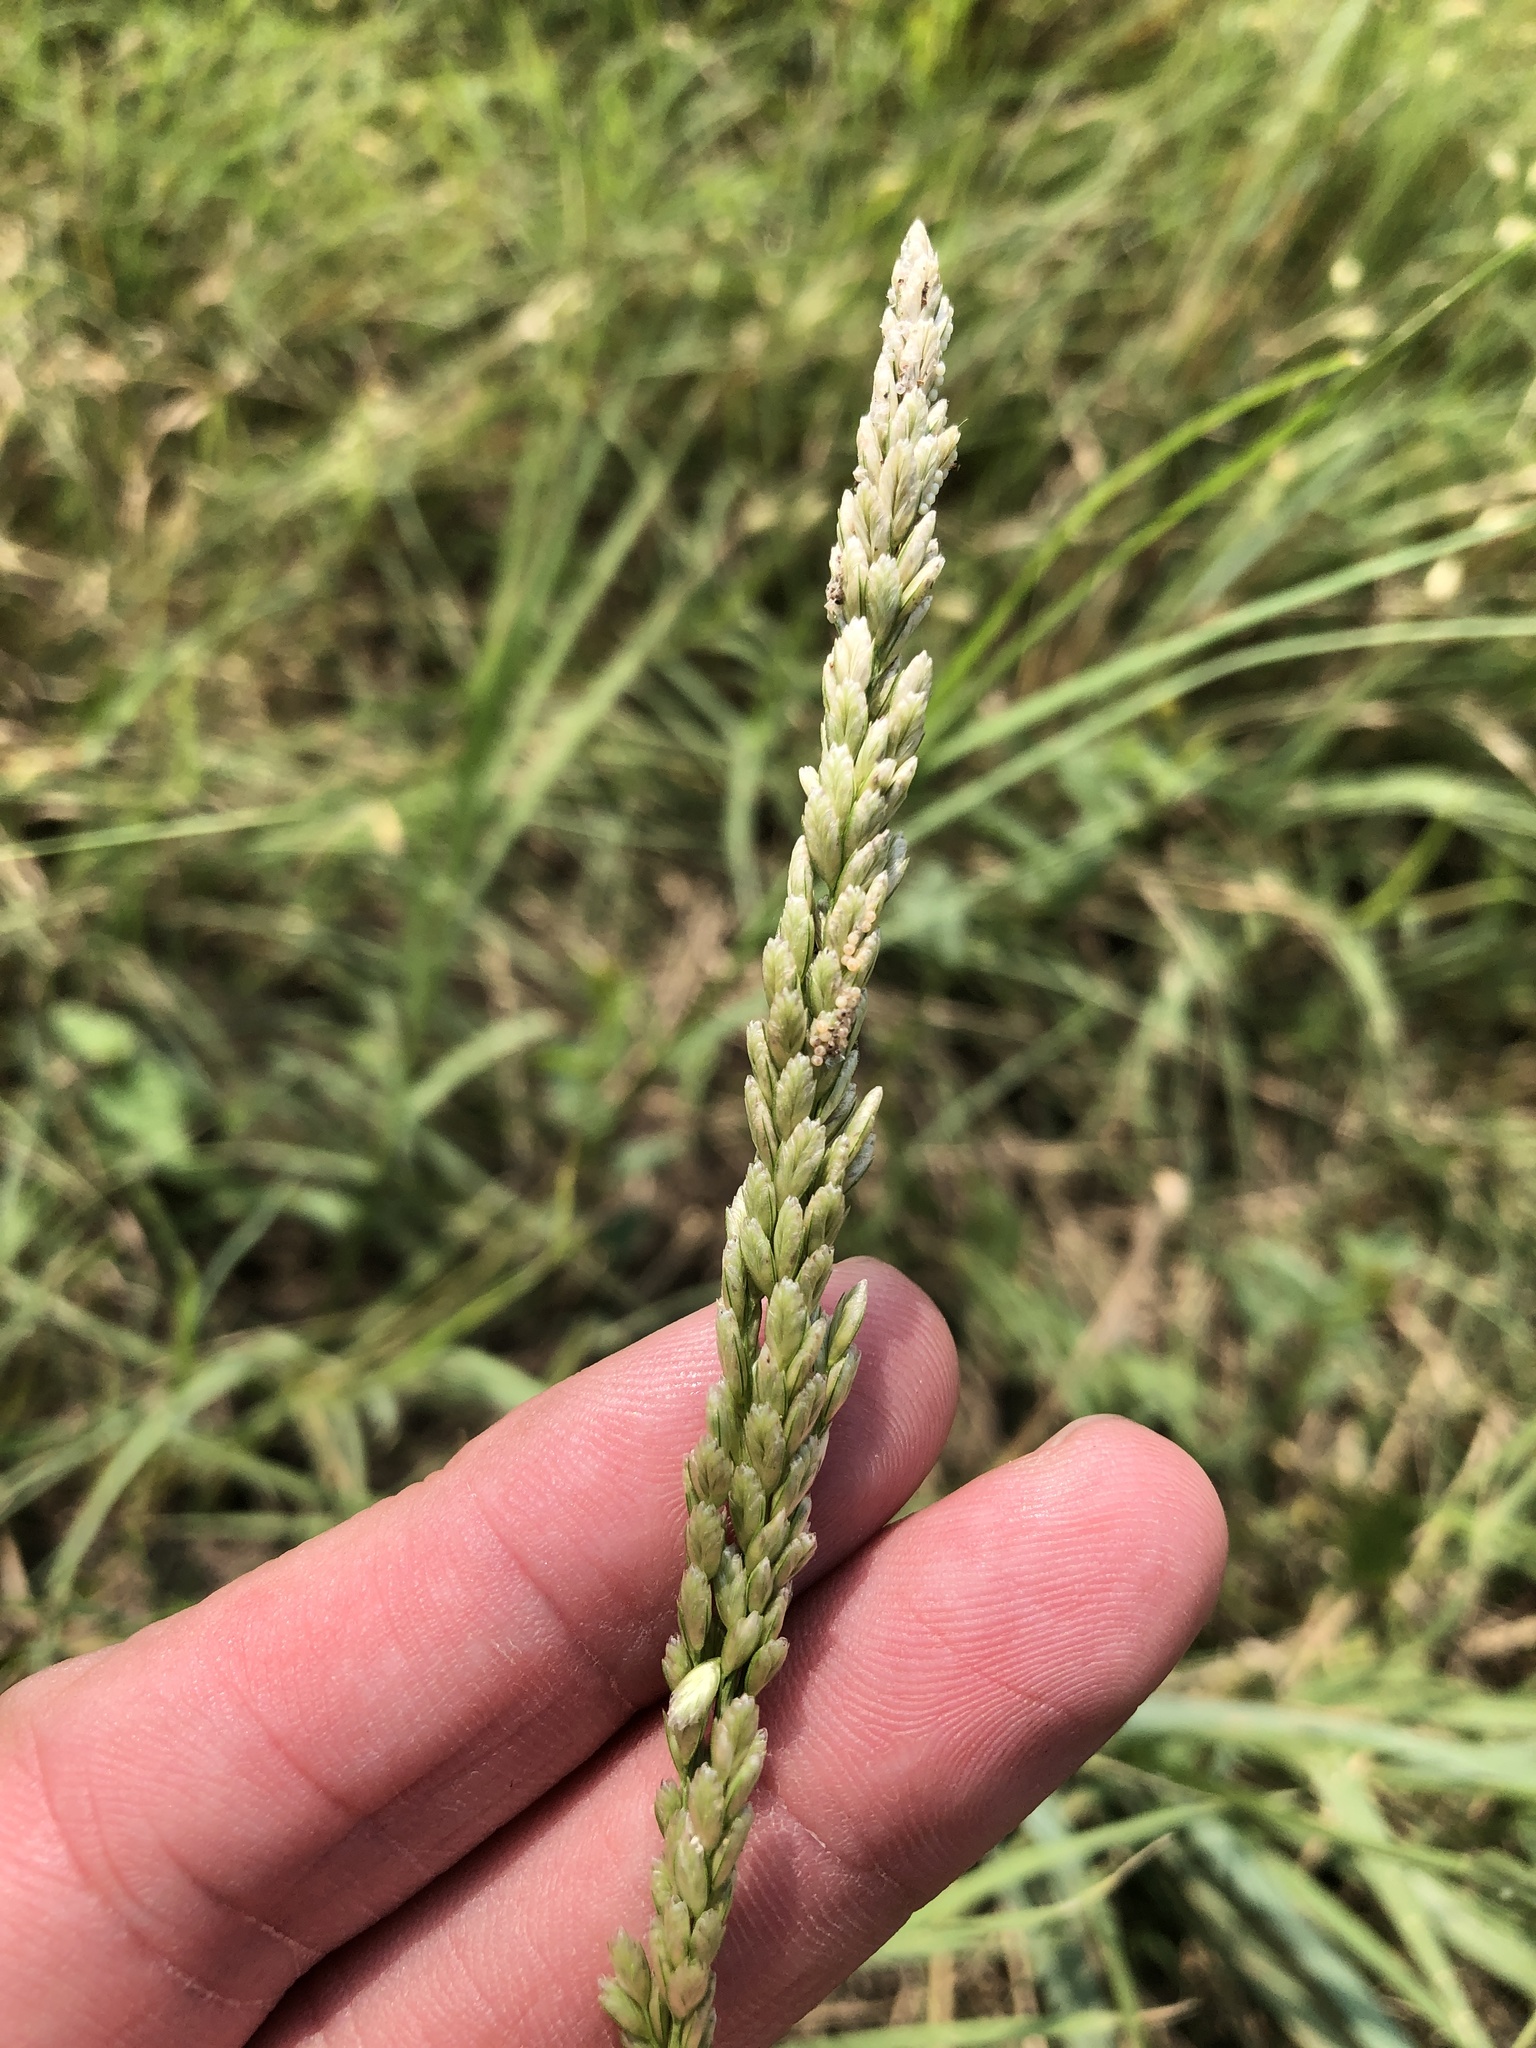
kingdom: Plantae
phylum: Tracheophyta
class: Liliopsida
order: Poales
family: Poaceae
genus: Tridens
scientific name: Tridens albescens
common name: White tridens
